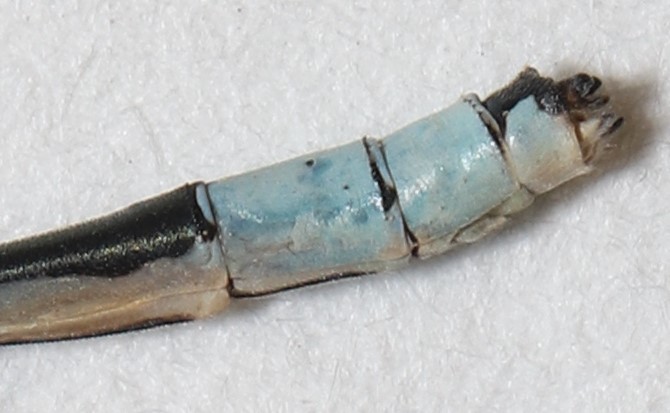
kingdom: Animalia
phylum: Arthropoda
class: Insecta
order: Odonata
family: Coenagrionidae
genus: Enallagma
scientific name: Enallagma ebrium
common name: Marsh bluet
